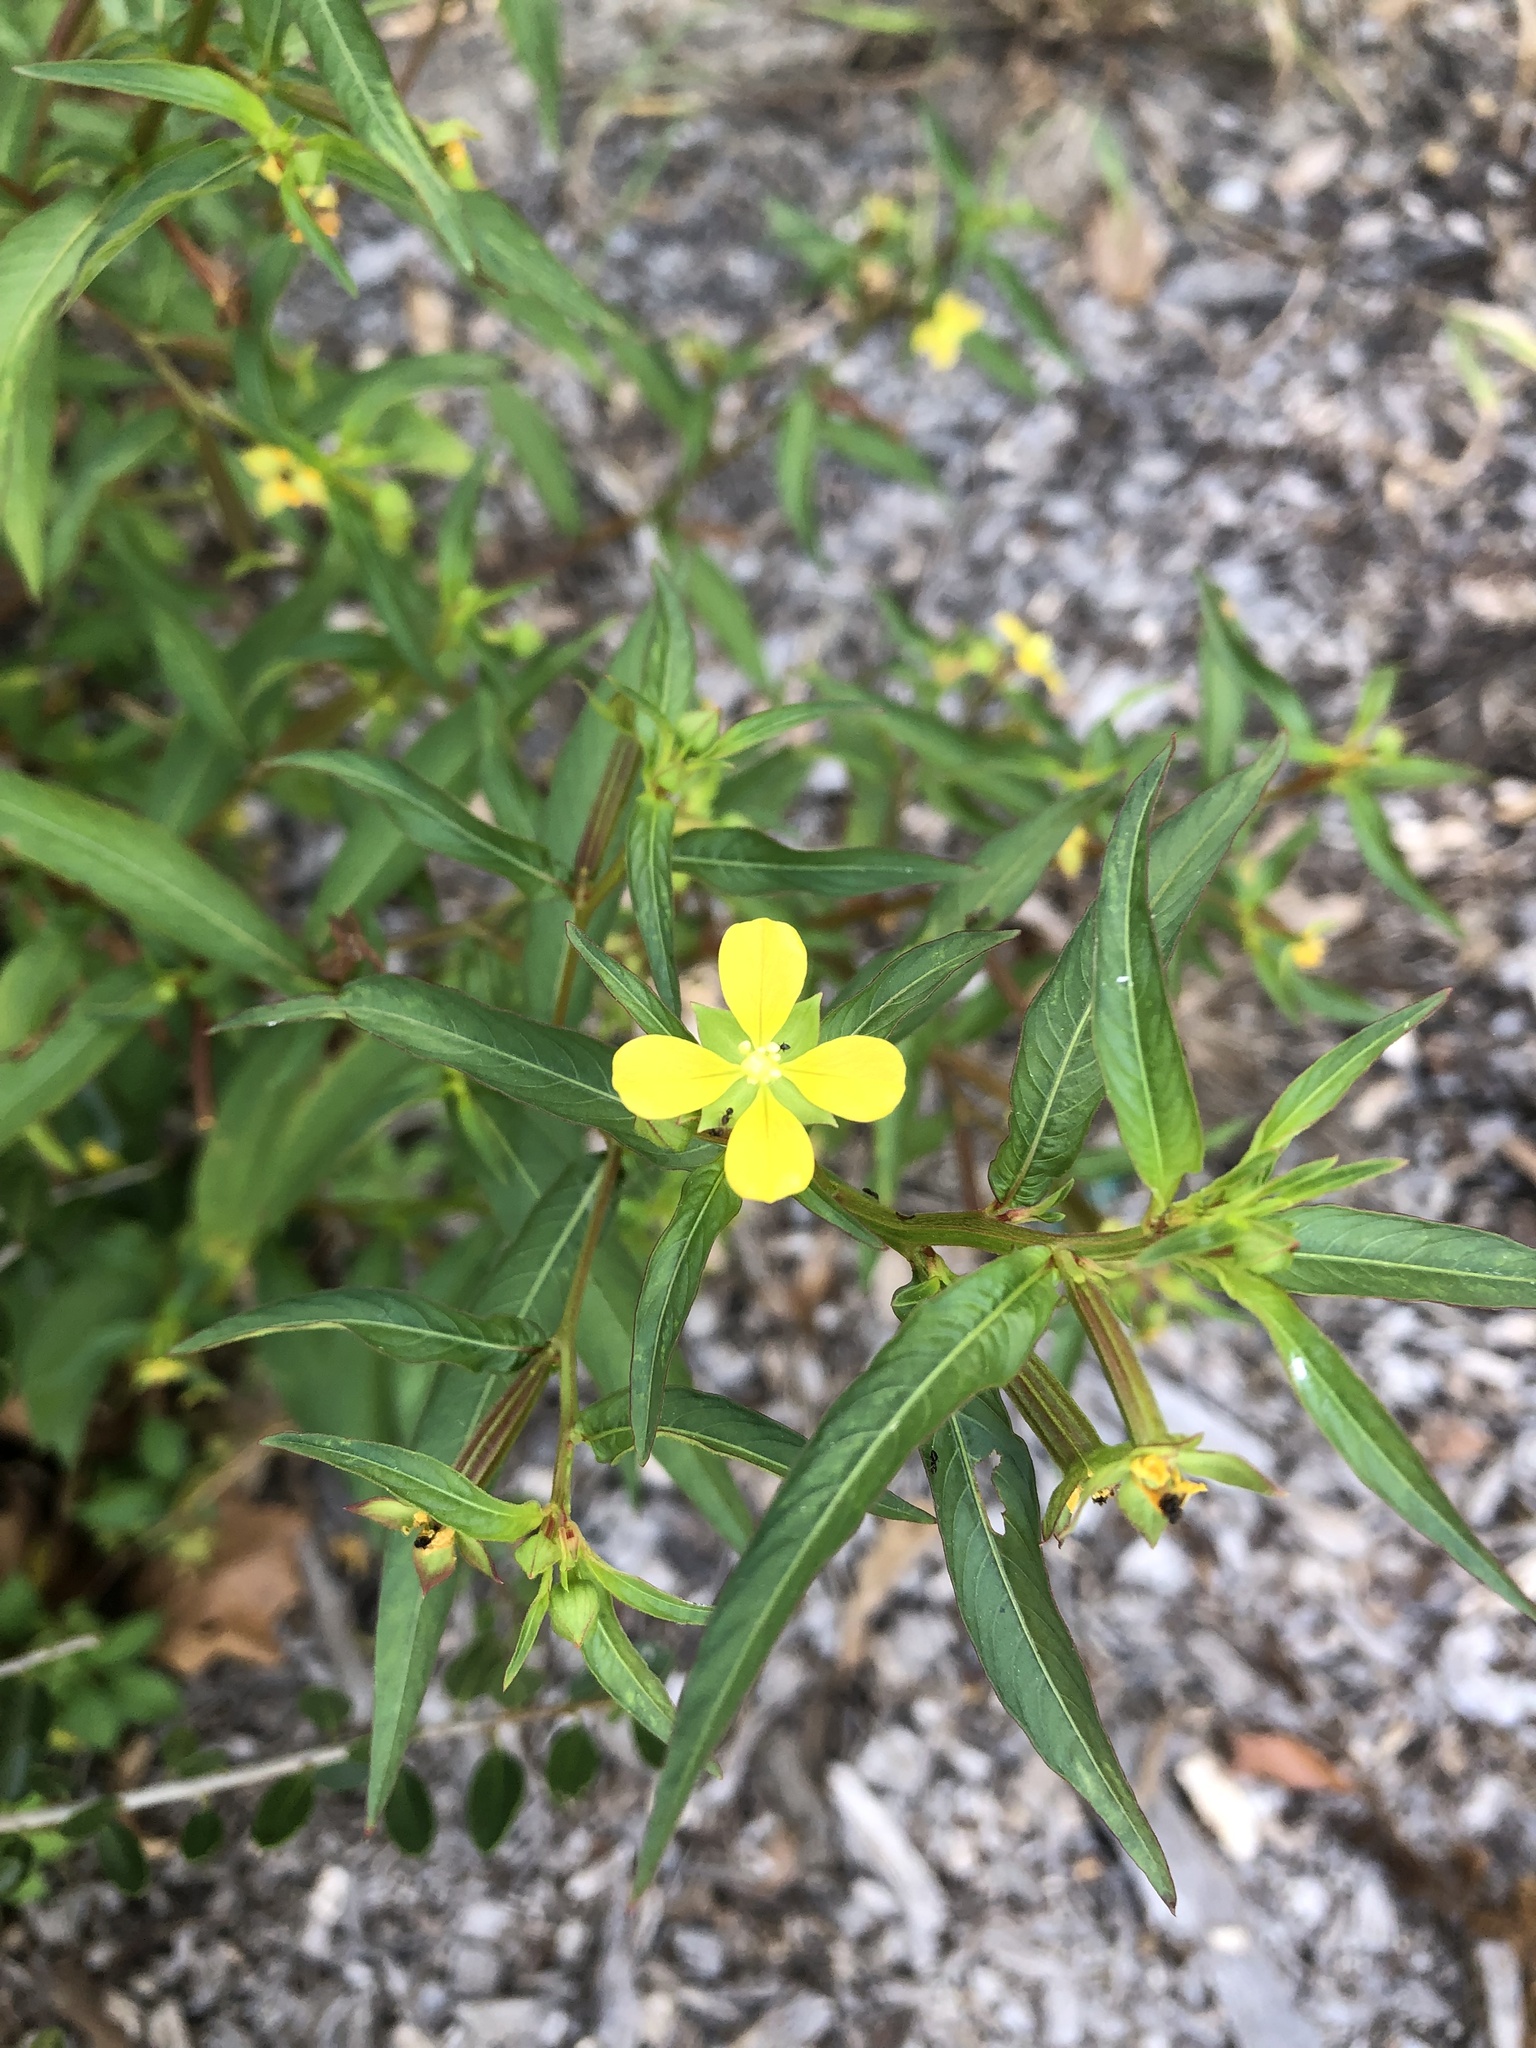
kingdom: Plantae
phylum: Tracheophyta
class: Magnoliopsida
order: Myrtales
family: Onagraceae
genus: Ludwigia
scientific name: Ludwigia alternifolia
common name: Rattlebox
